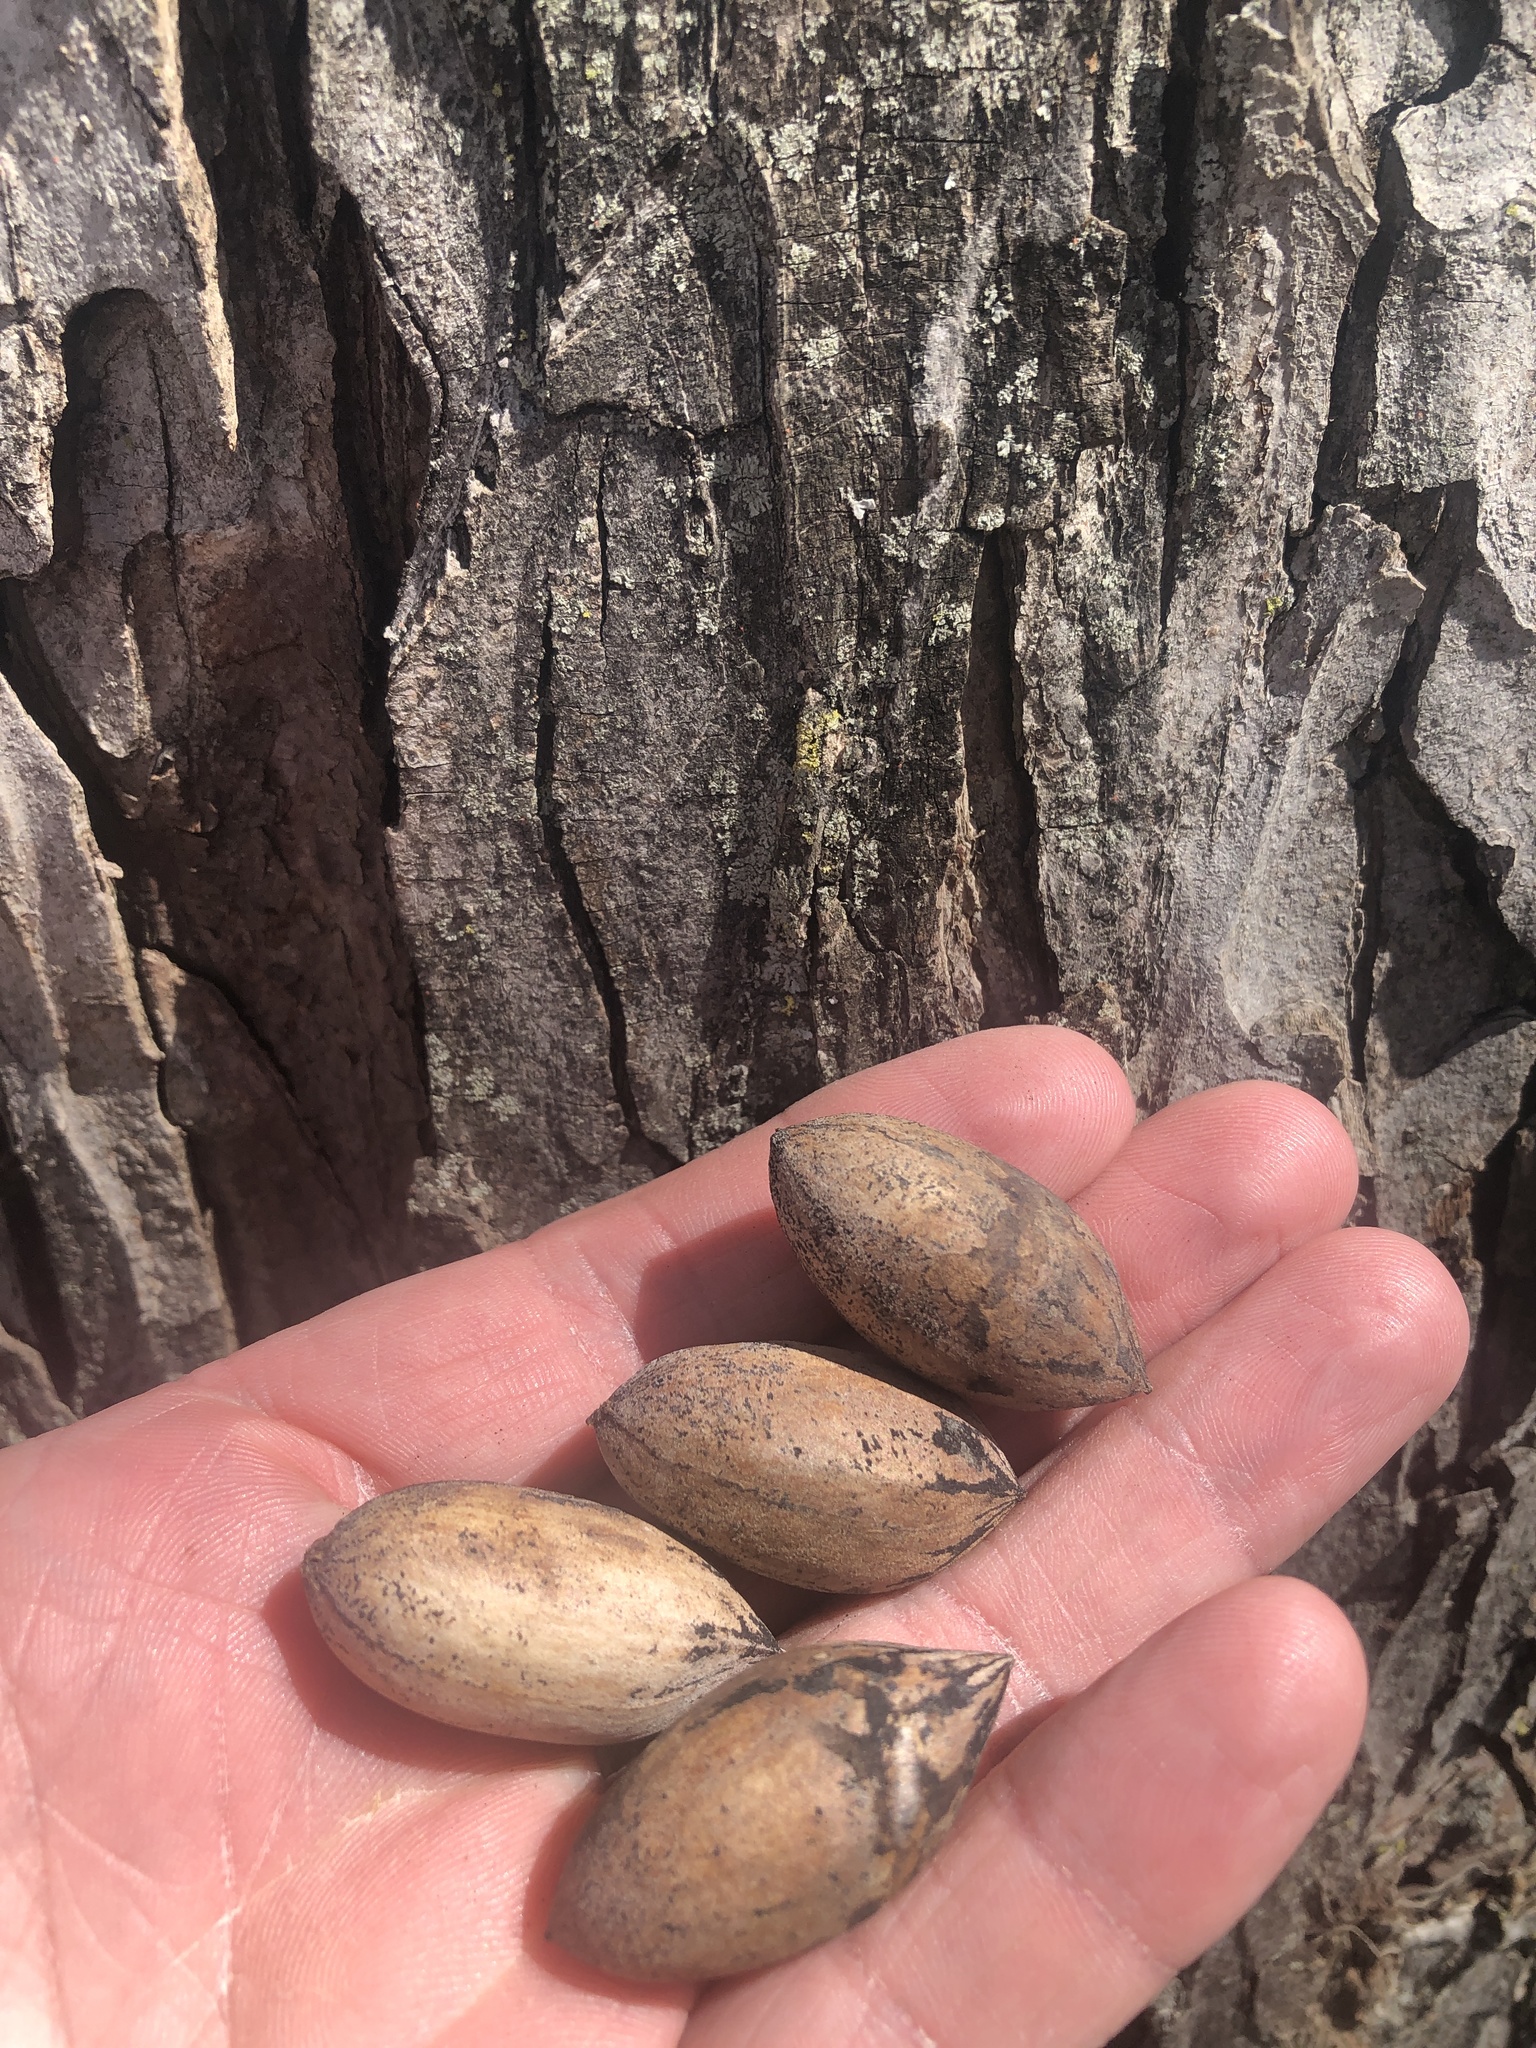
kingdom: Plantae
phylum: Tracheophyta
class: Magnoliopsida
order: Fagales
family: Juglandaceae
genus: Carya
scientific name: Carya illinoinensis
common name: Pecan
